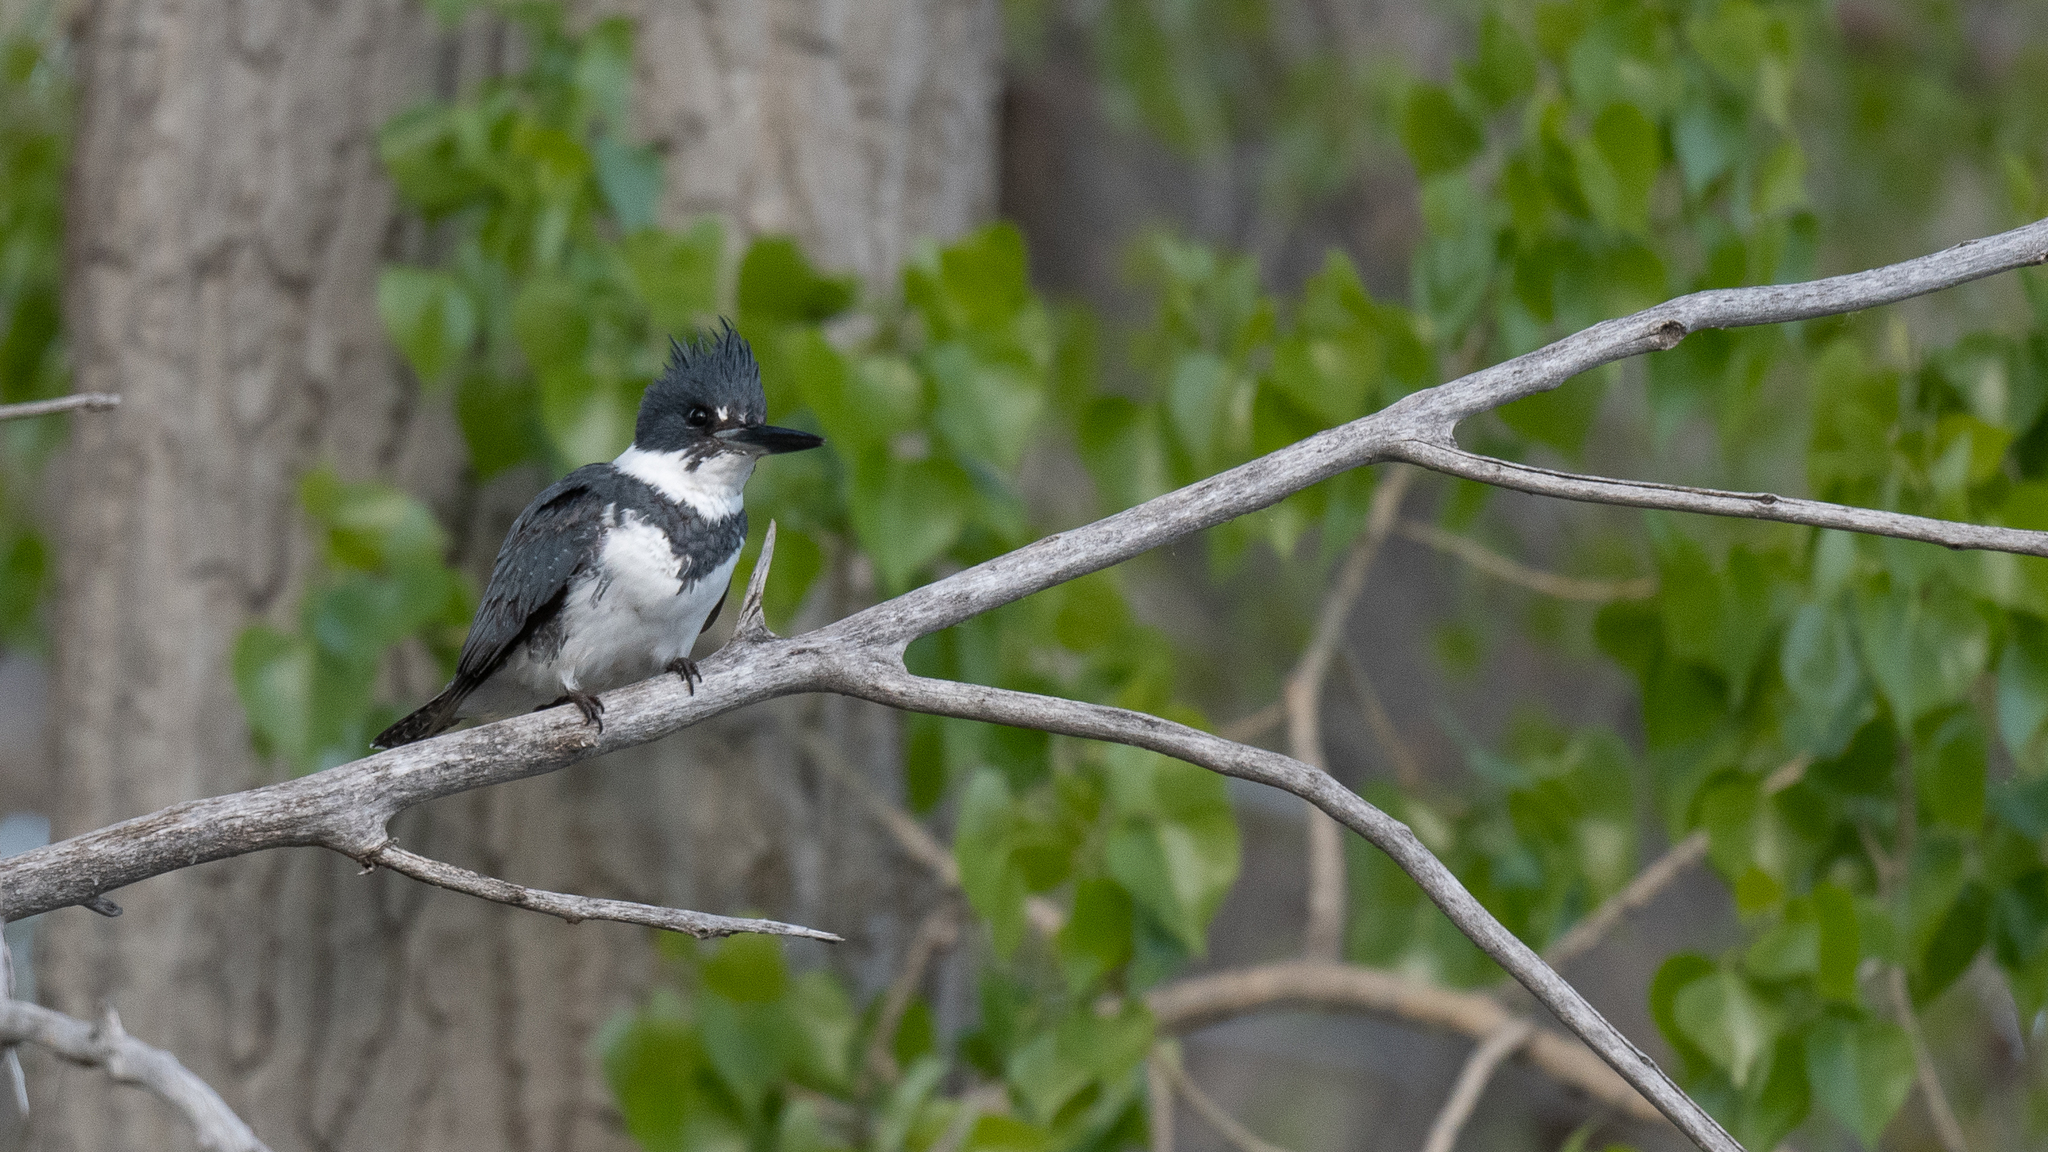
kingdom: Animalia
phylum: Chordata
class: Aves
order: Coraciiformes
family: Alcedinidae
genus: Megaceryle
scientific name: Megaceryle alcyon
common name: Belted kingfisher
